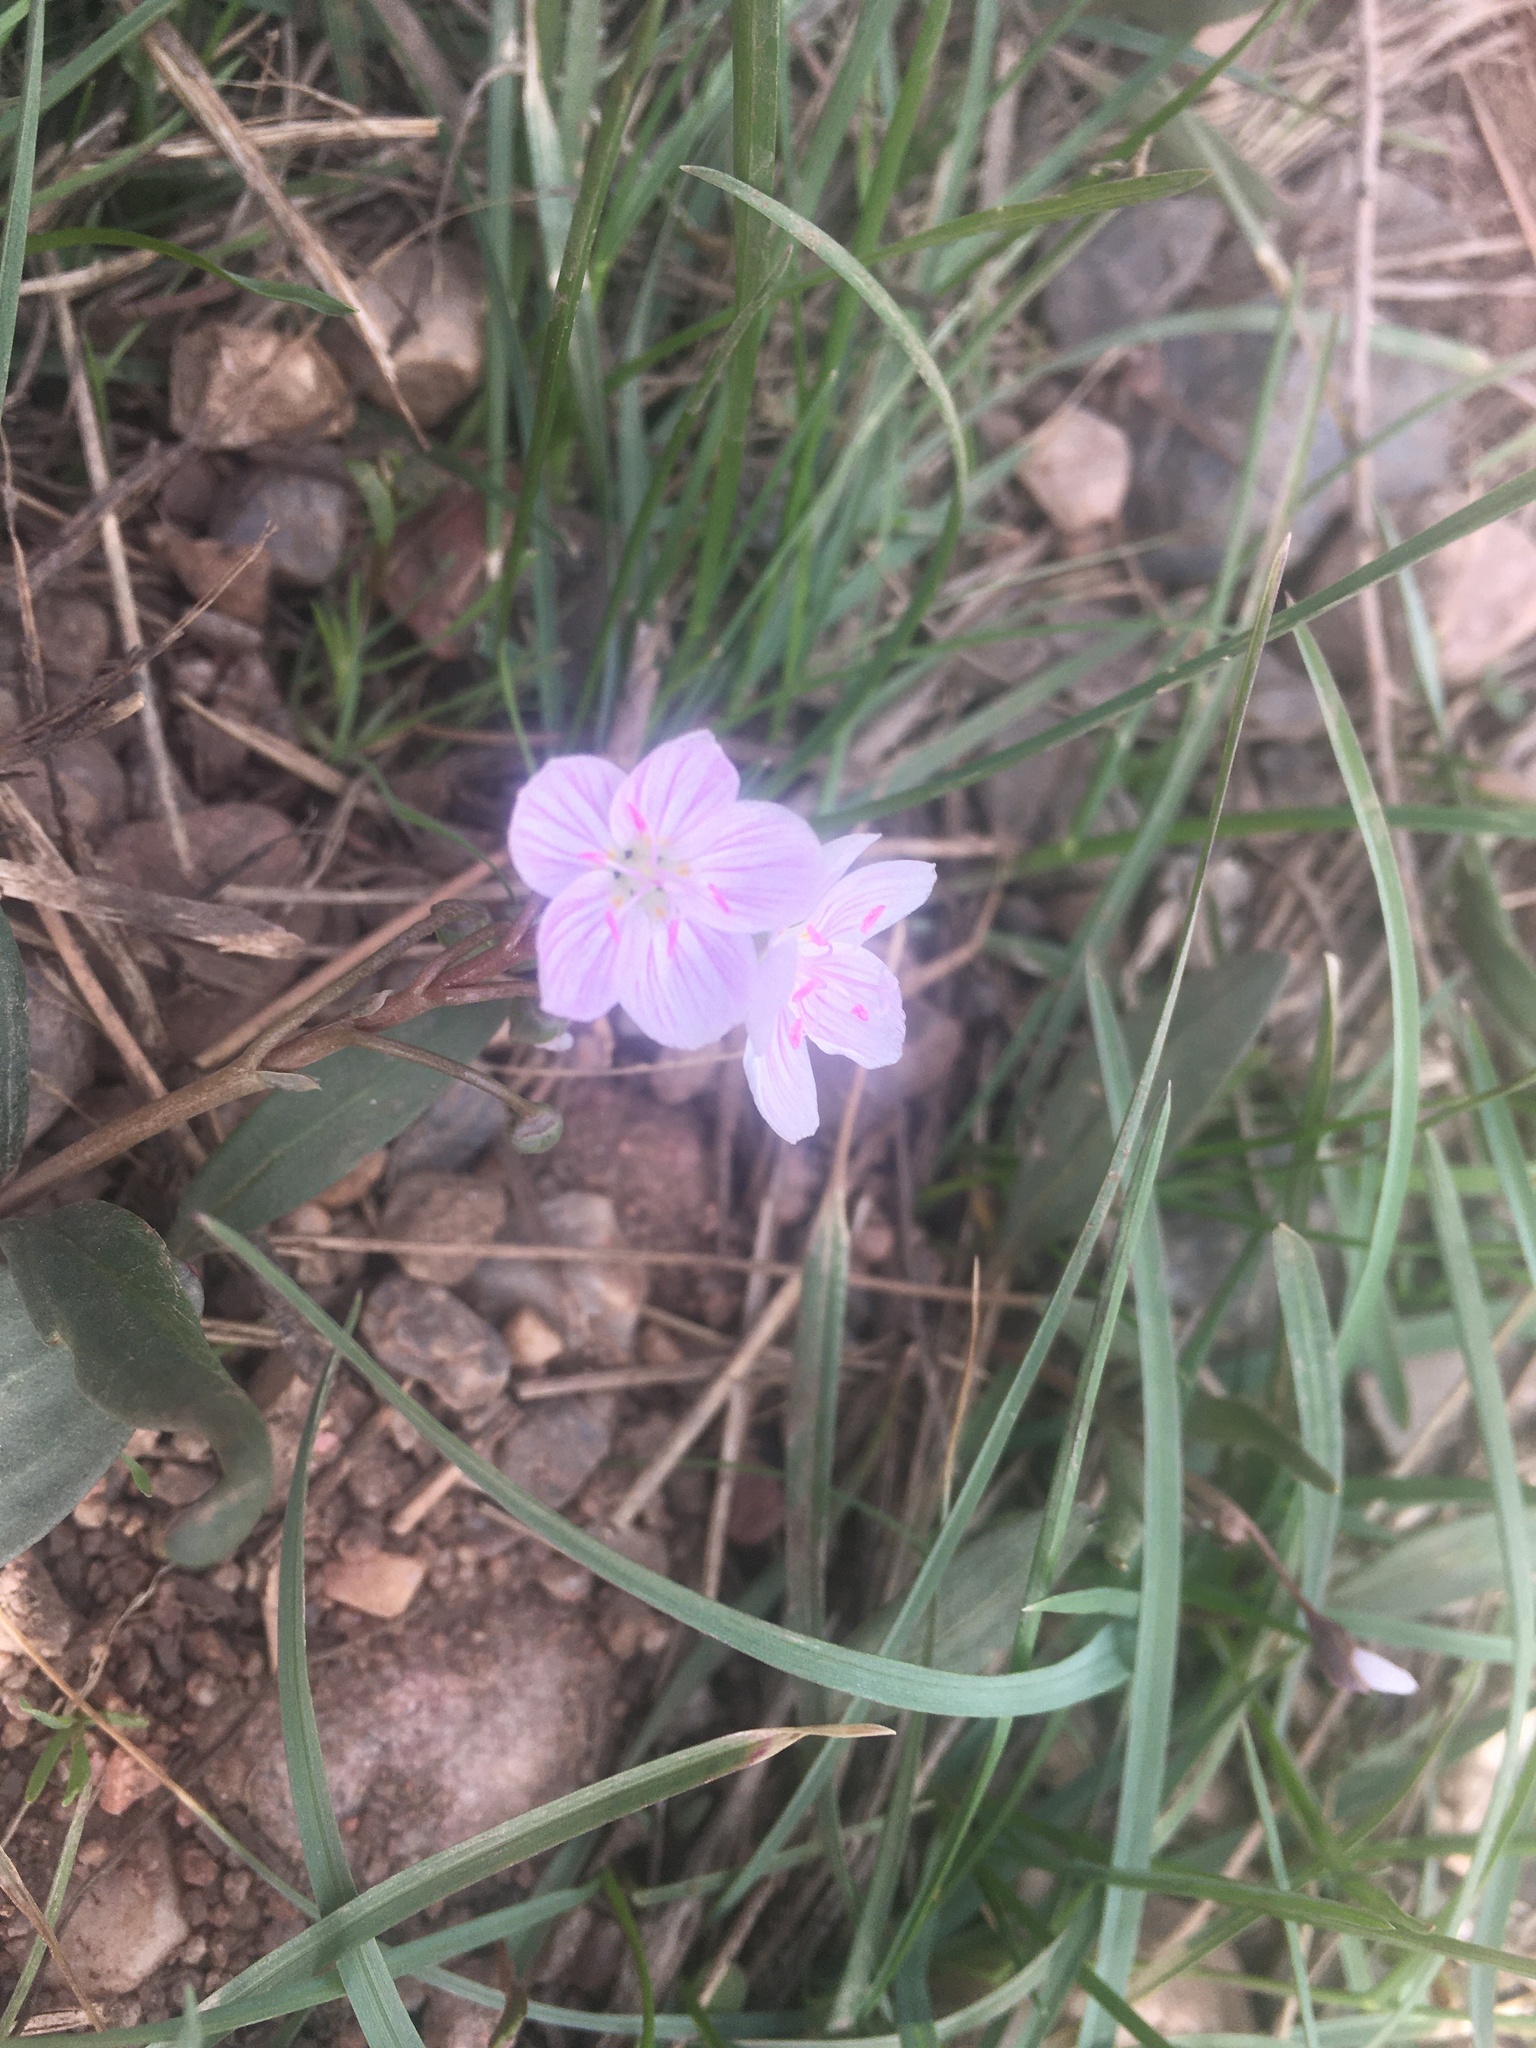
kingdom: Plantae
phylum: Tracheophyta
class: Magnoliopsida
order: Caryophyllales
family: Montiaceae
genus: Claytonia
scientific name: Claytonia rosea
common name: Rocky mountain spring-beauty
